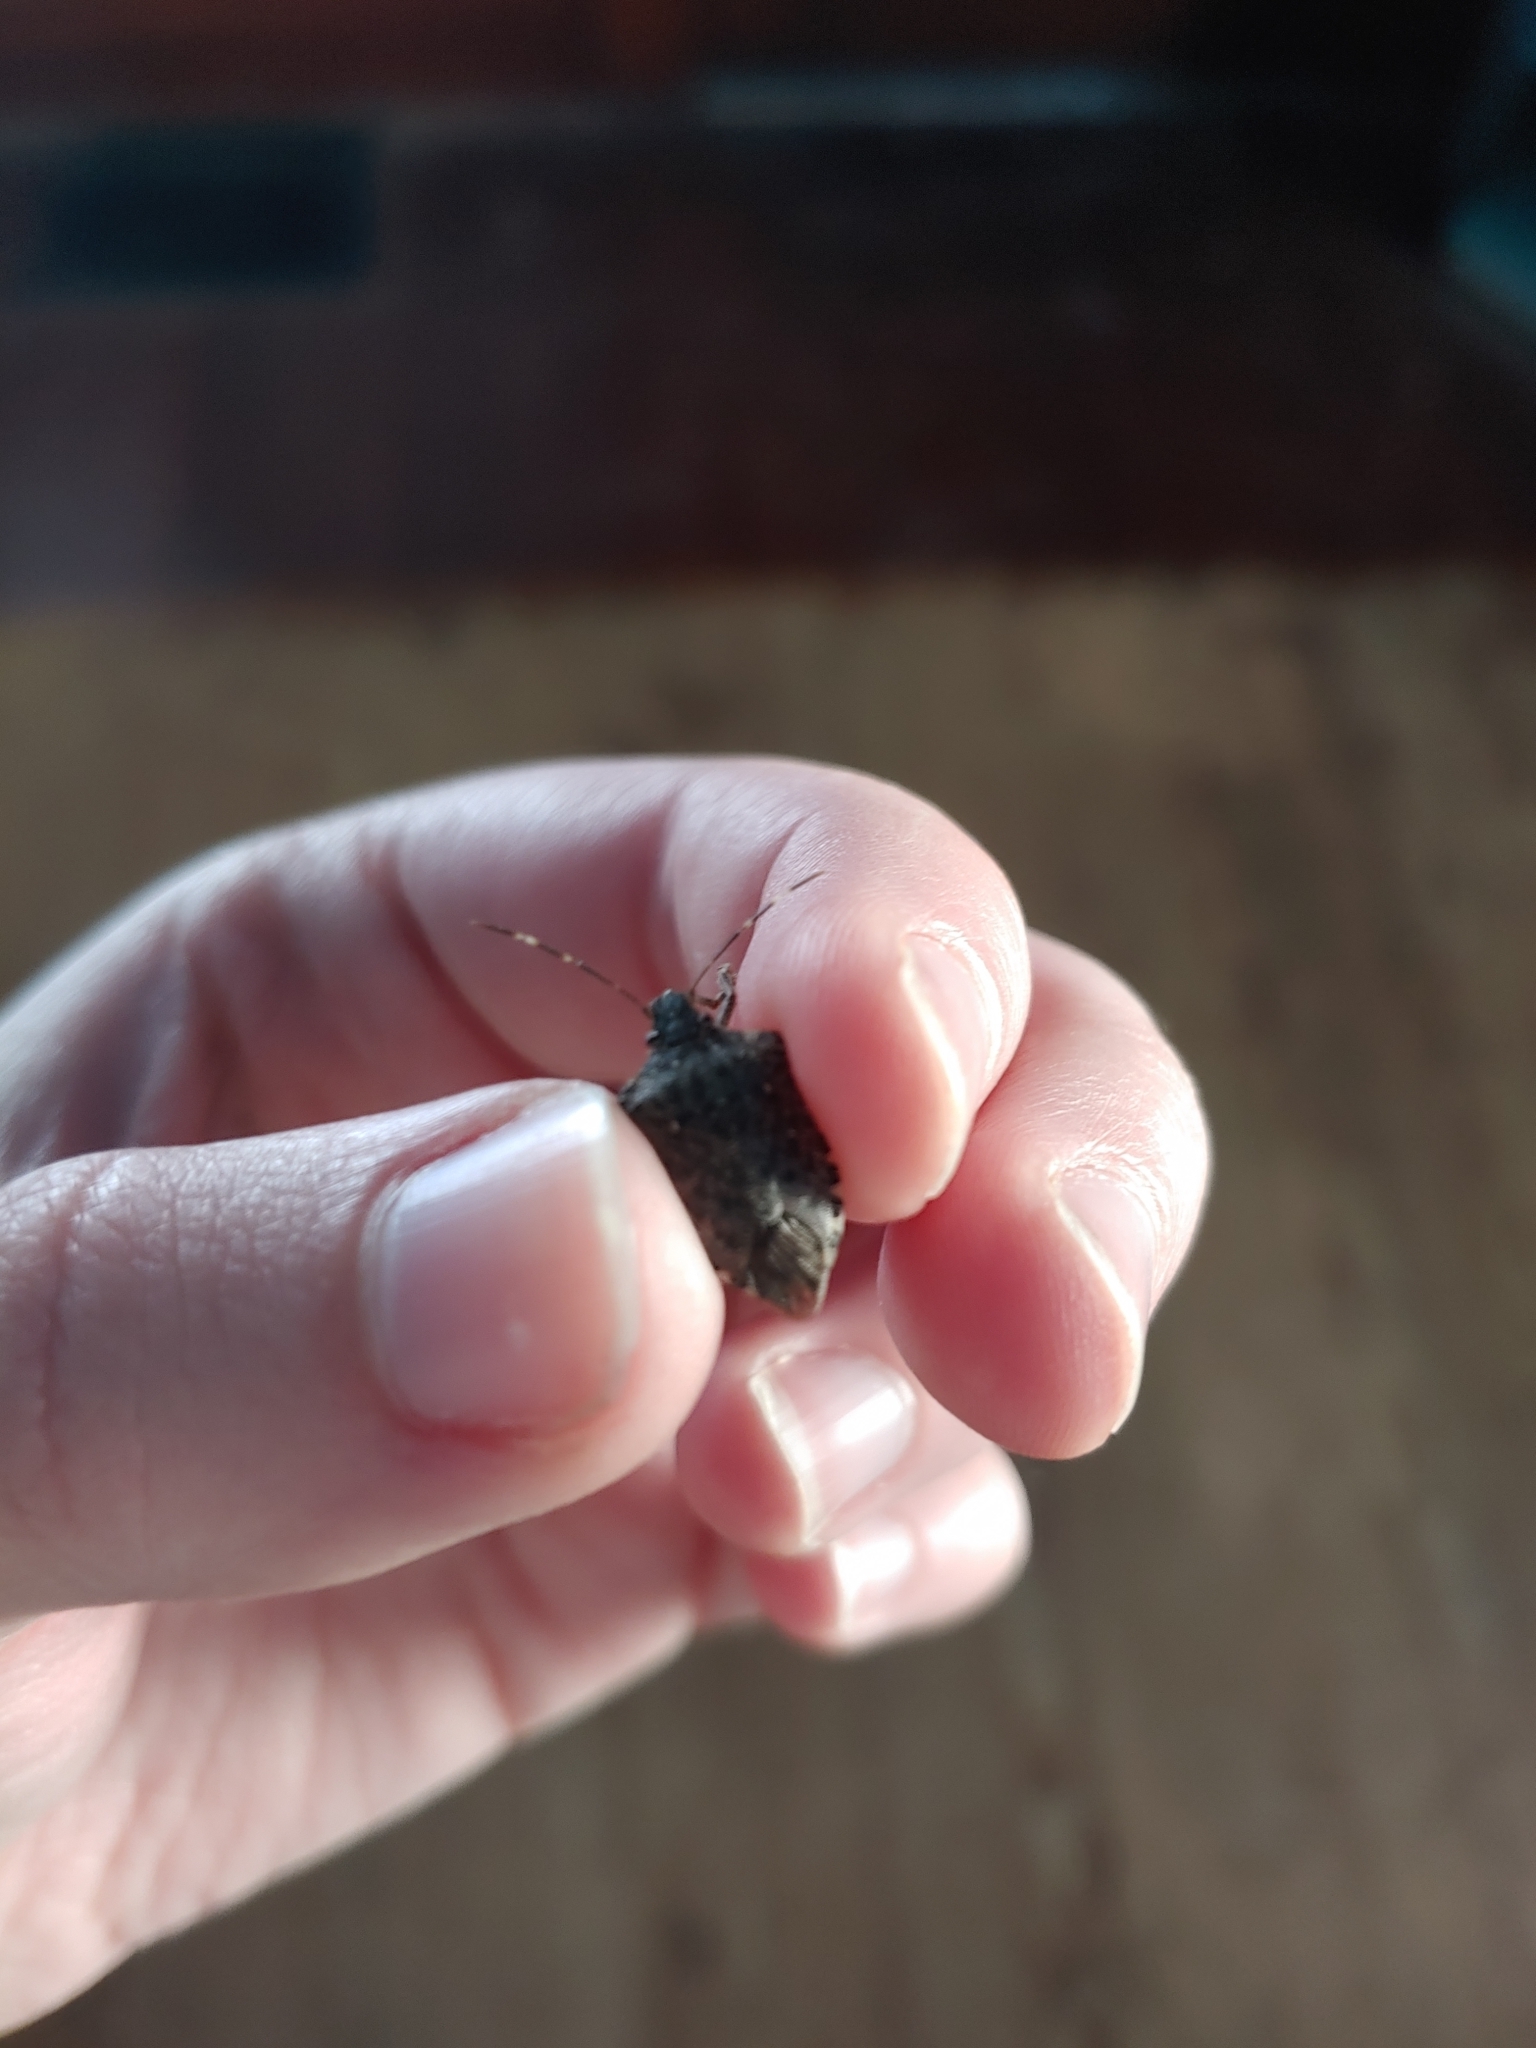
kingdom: Animalia
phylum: Arthropoda
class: Insecta
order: Hemiptera
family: Pentatomidae
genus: Halyomorpha
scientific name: Halyomorpha halys
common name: Brown marmorated stink bug
